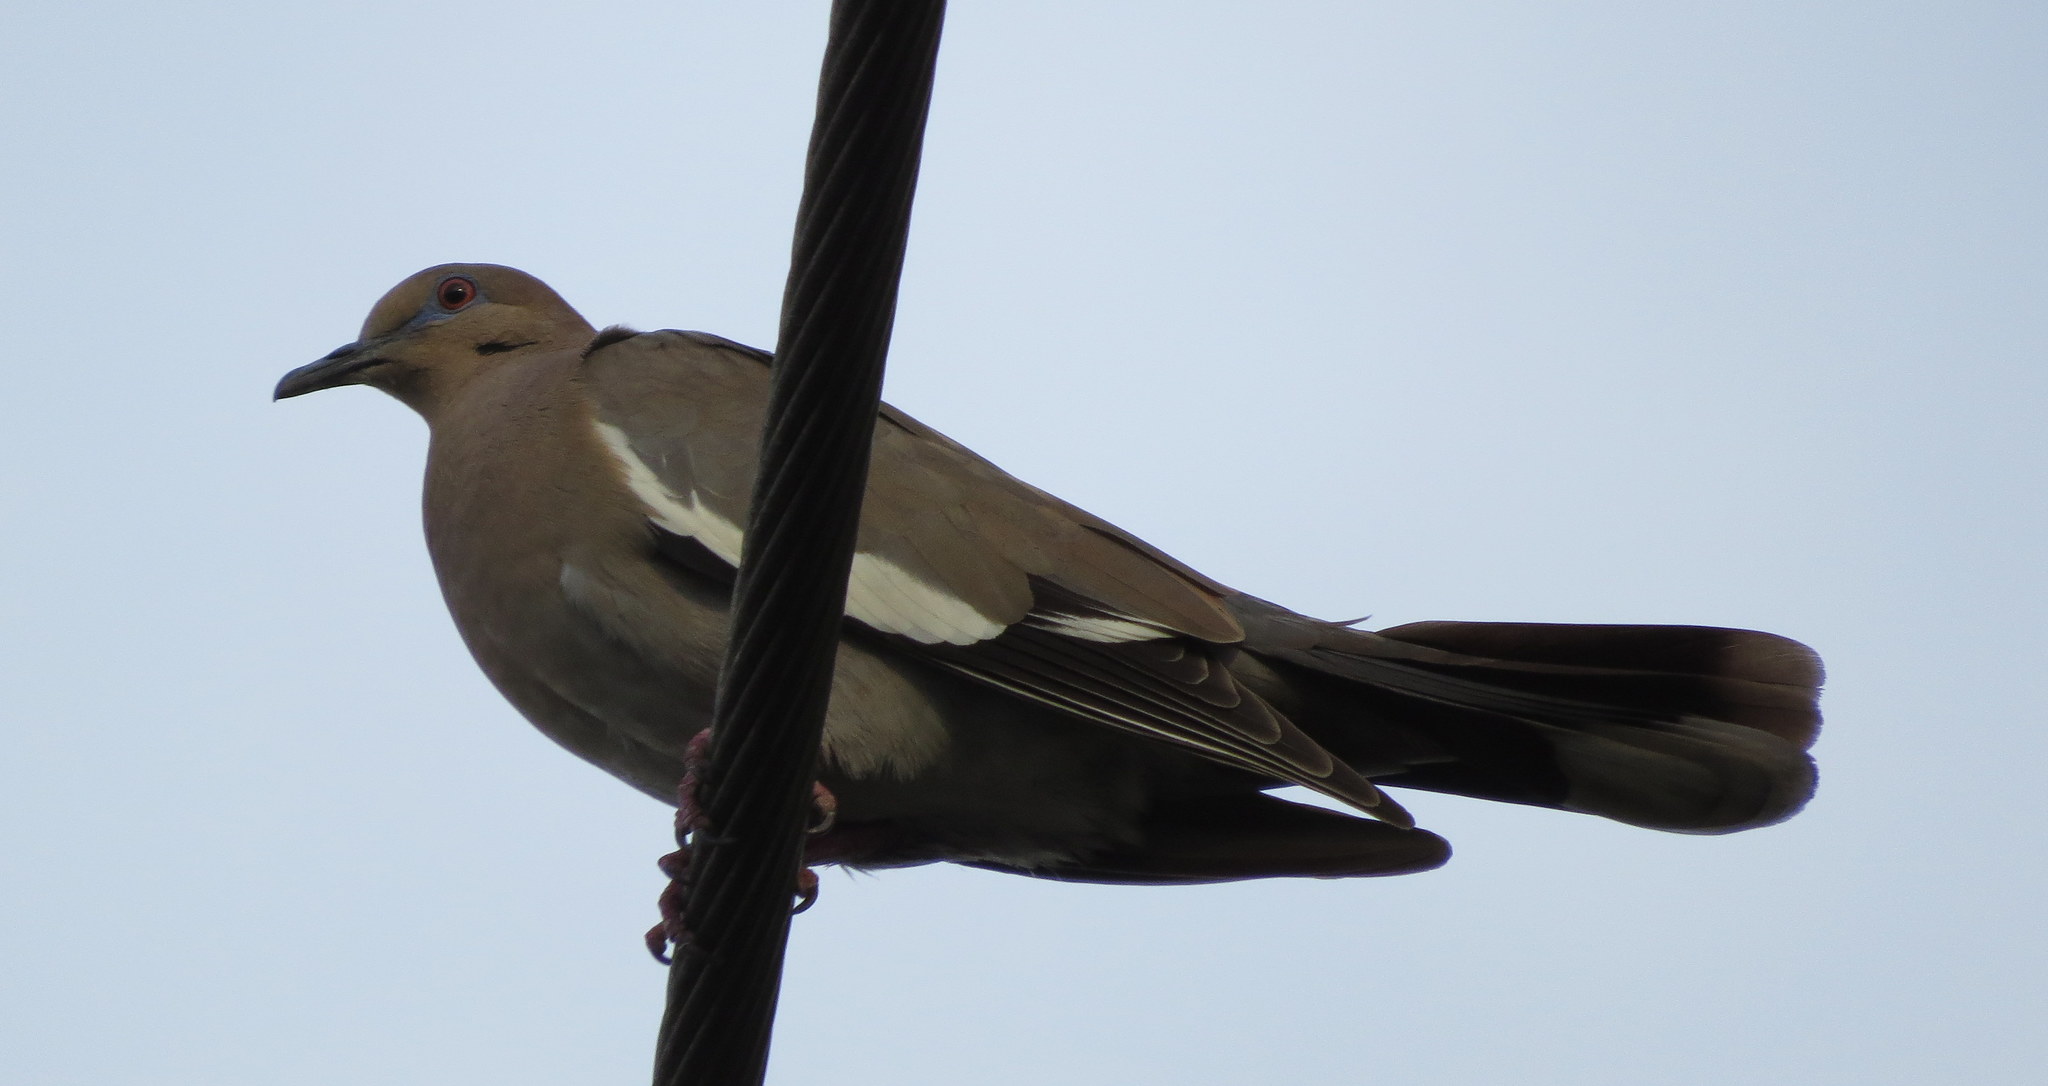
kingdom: Animalia
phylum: Chordata
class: Aves
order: Columbiformes
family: Columbidae
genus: Zenaida
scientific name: Zenaida asiatica
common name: White-winged dove
